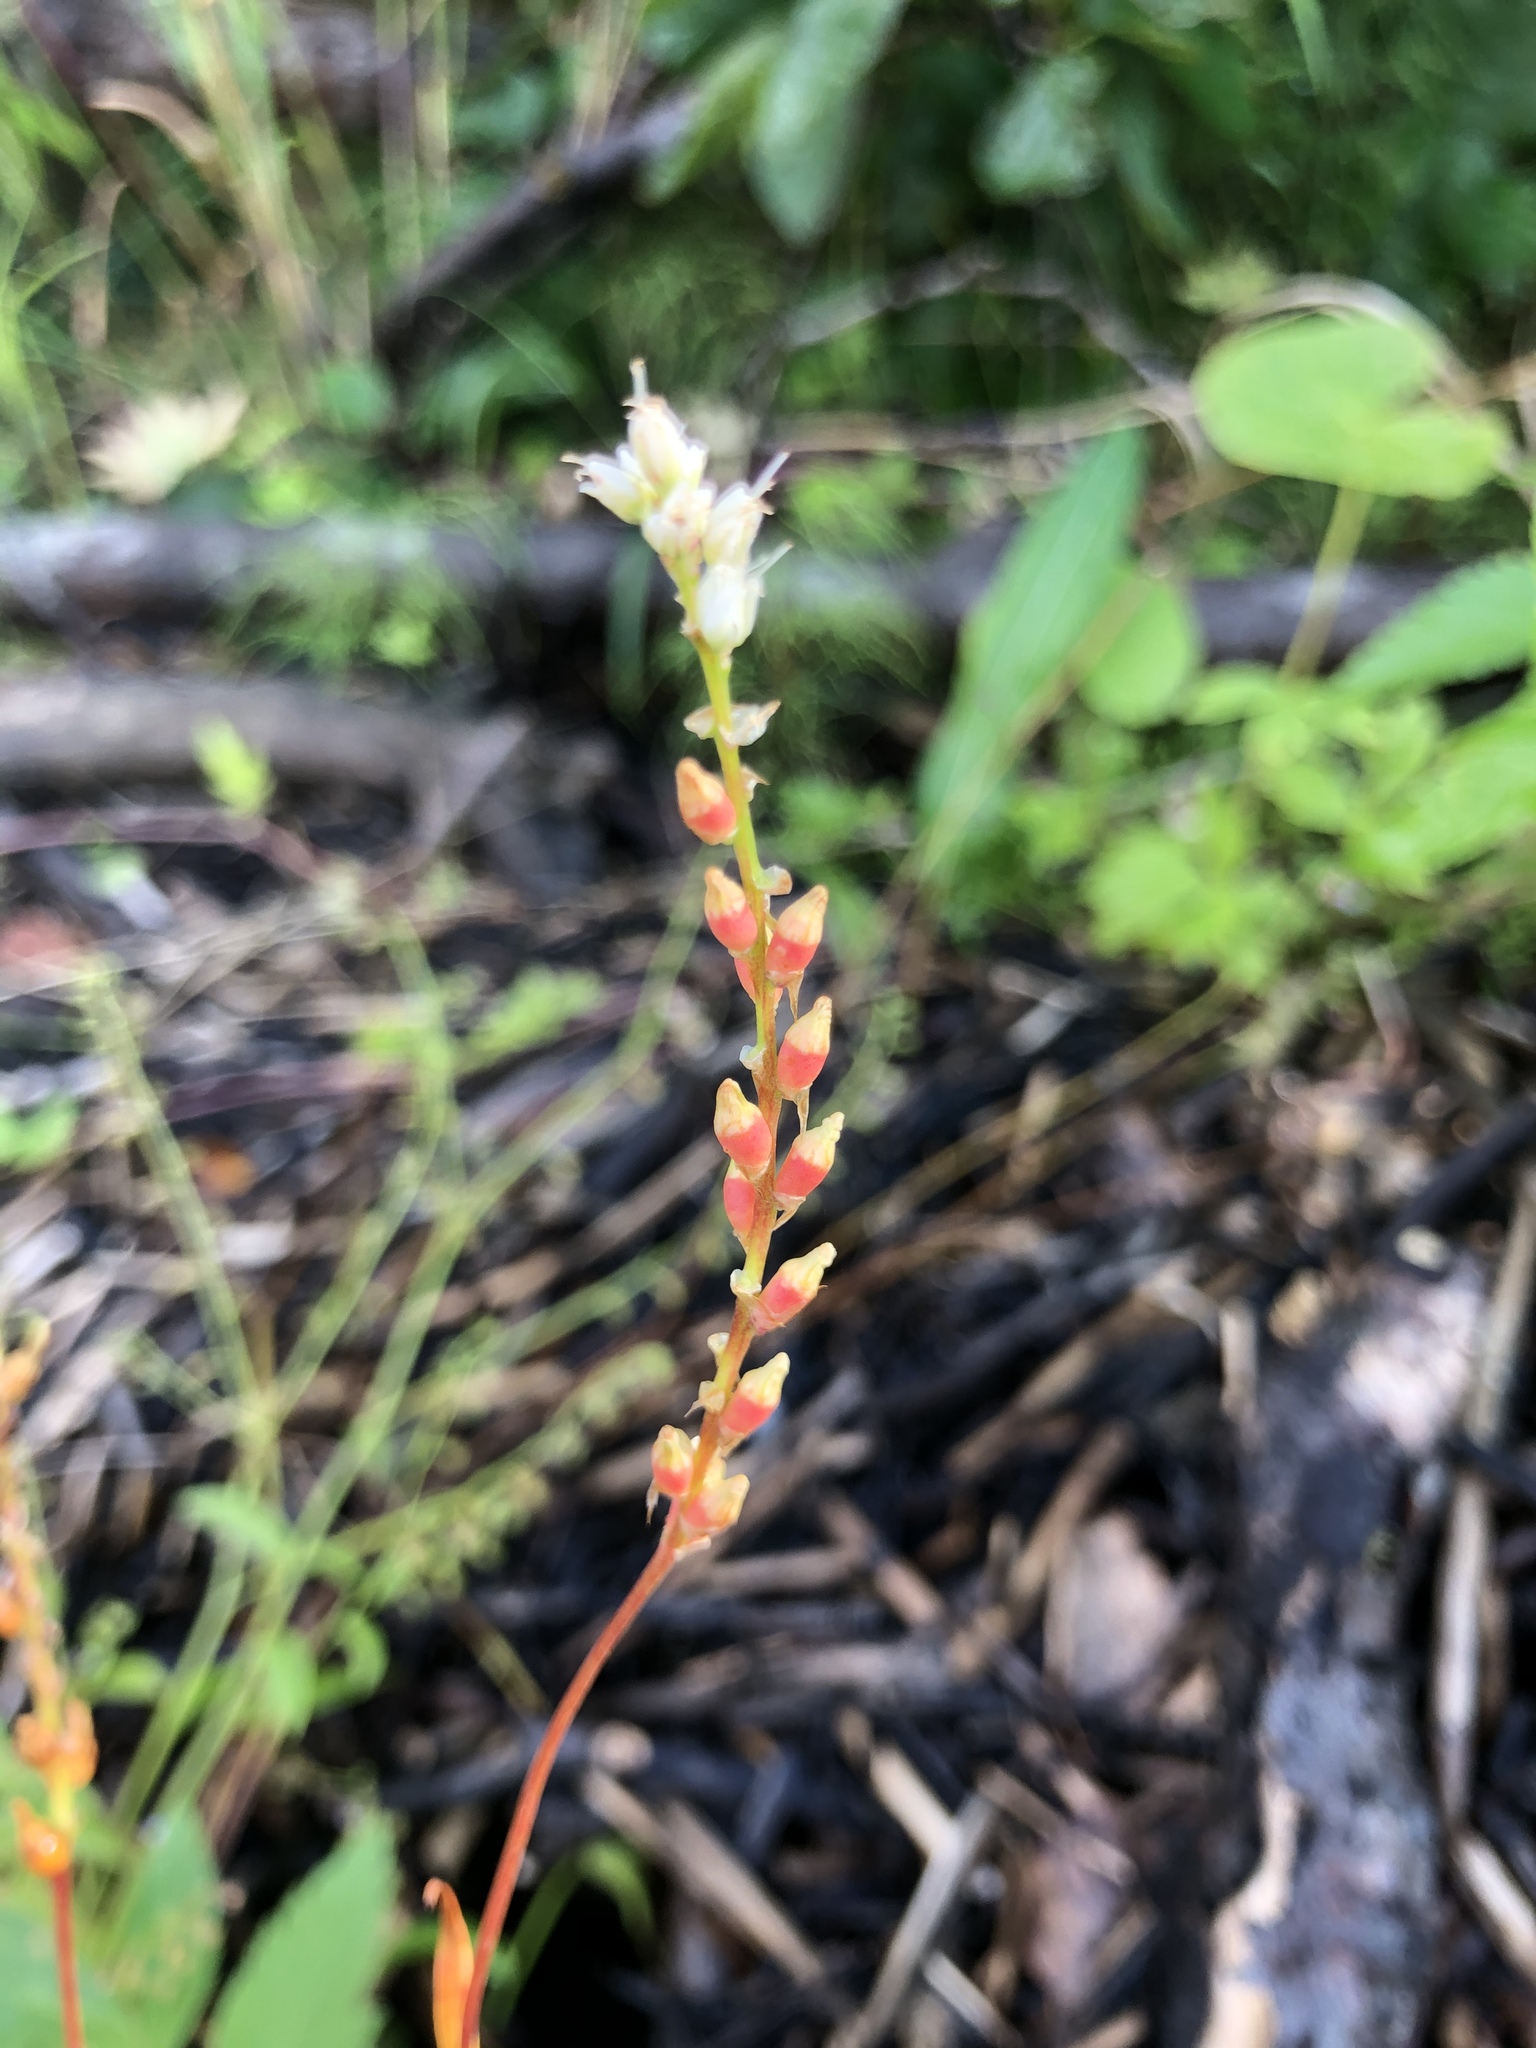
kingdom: Plantae
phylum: Tracheophyta
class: Magnoliopsida
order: Caryophyllales
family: Polygonaceae
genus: Bistorta
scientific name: Bistorta vivipara
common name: Alpine bistort
